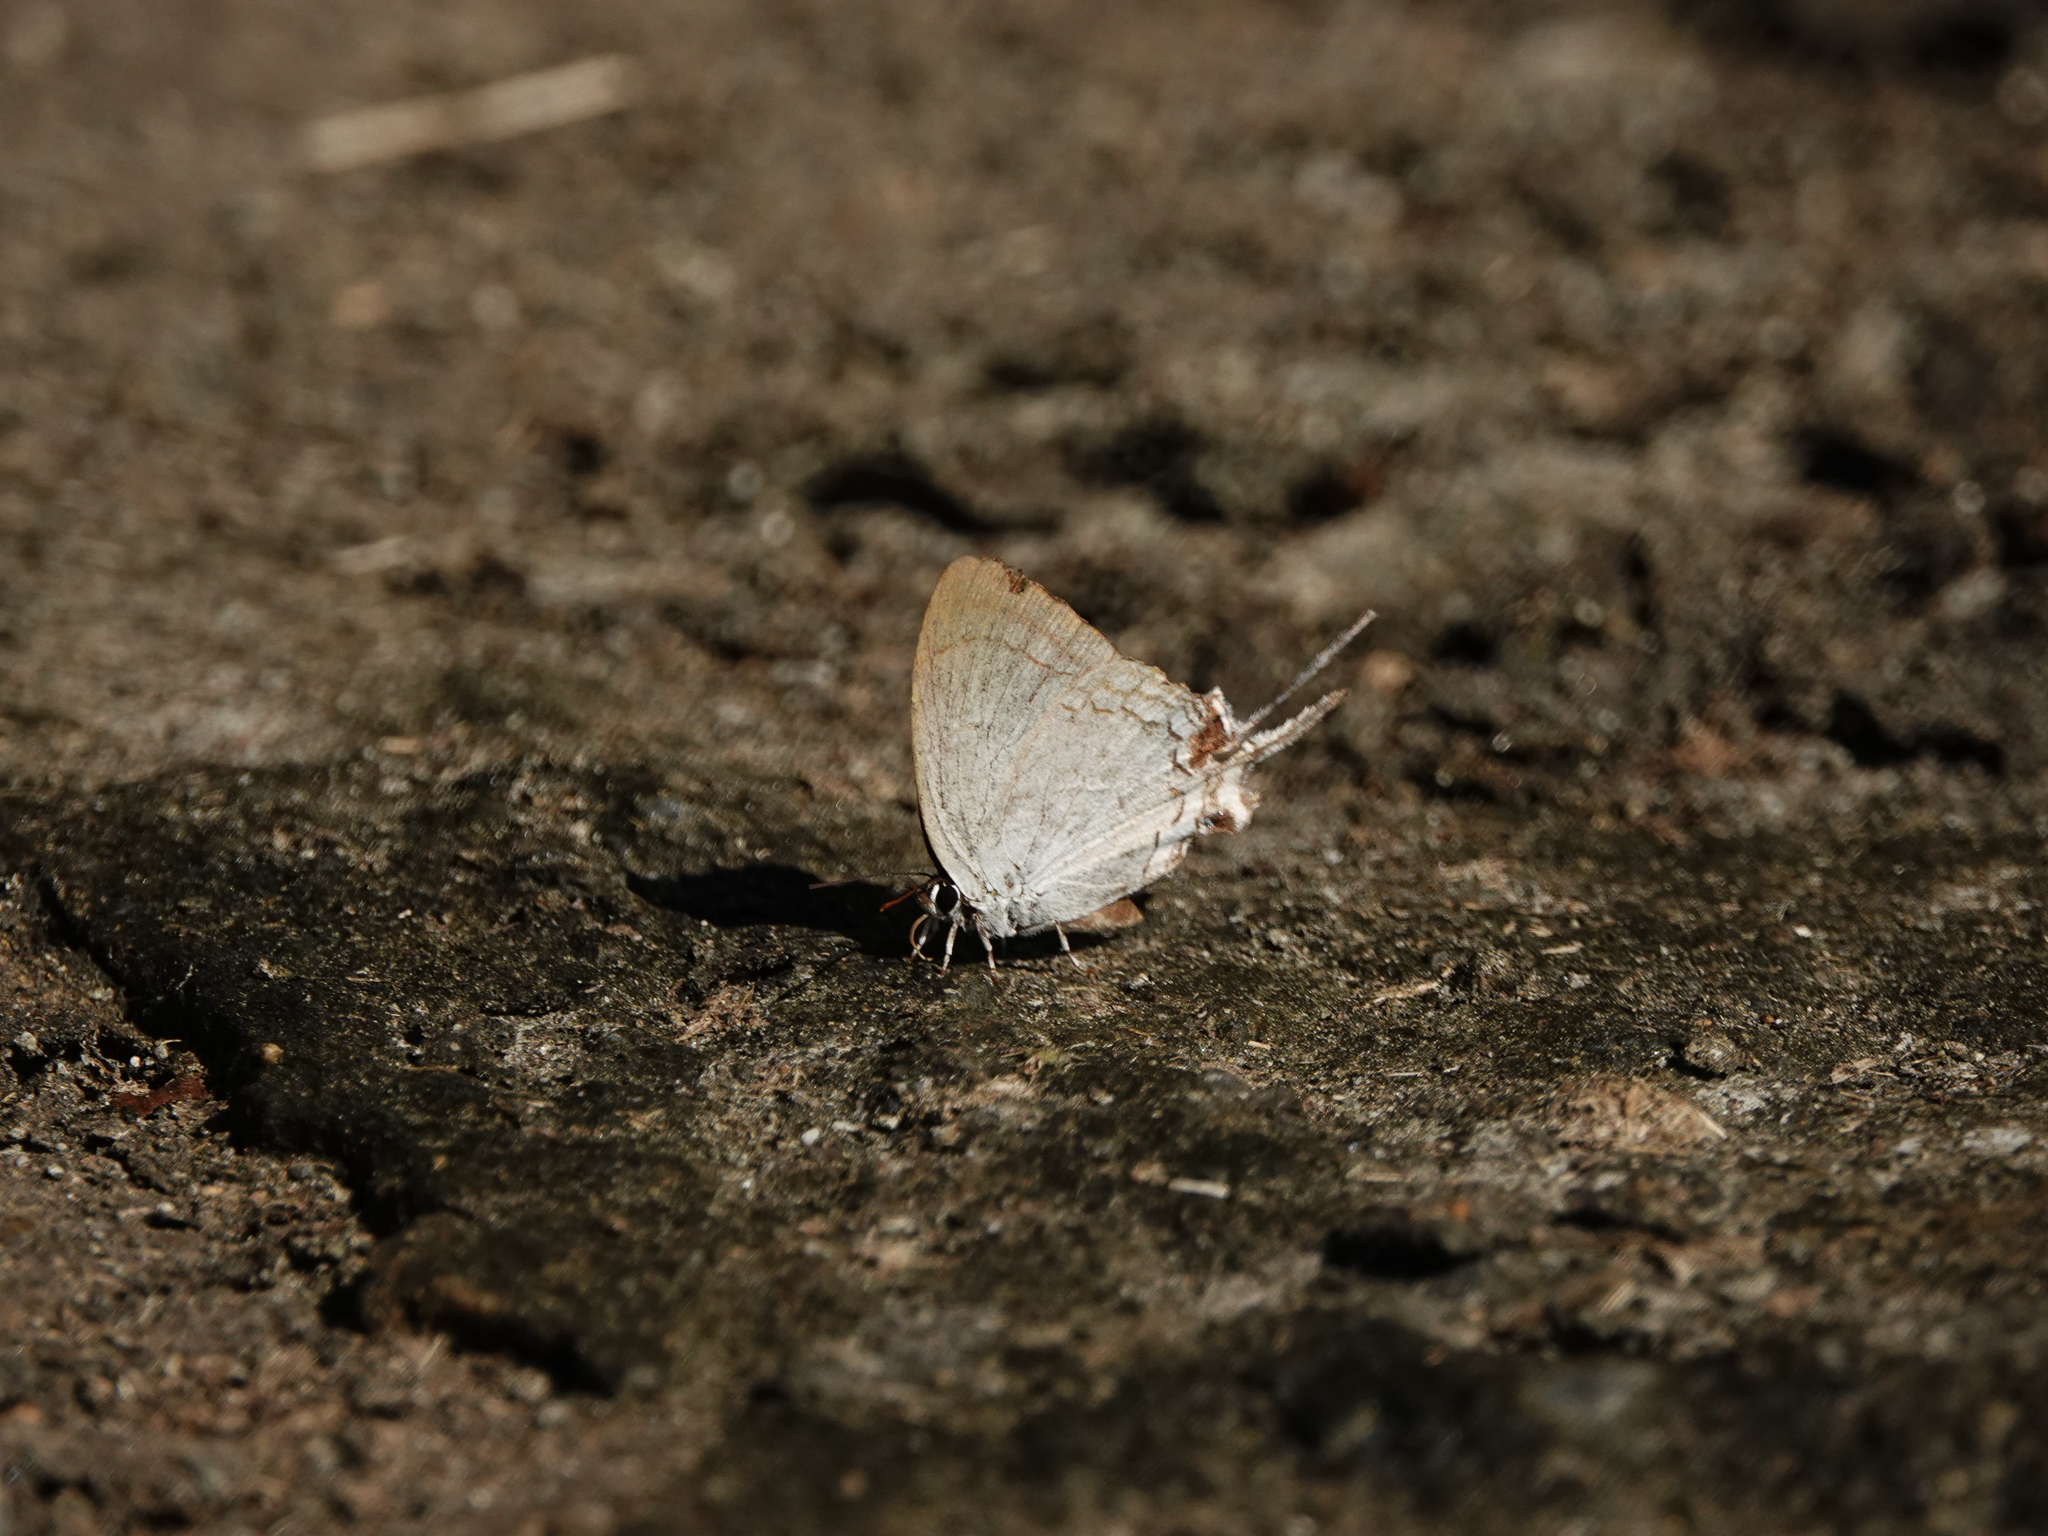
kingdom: Animalia
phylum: Arthropoda
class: Insecta
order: Lepidoptera
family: Lycaenidae
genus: Cheritra
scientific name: Cheritra freja
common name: Common imperial
